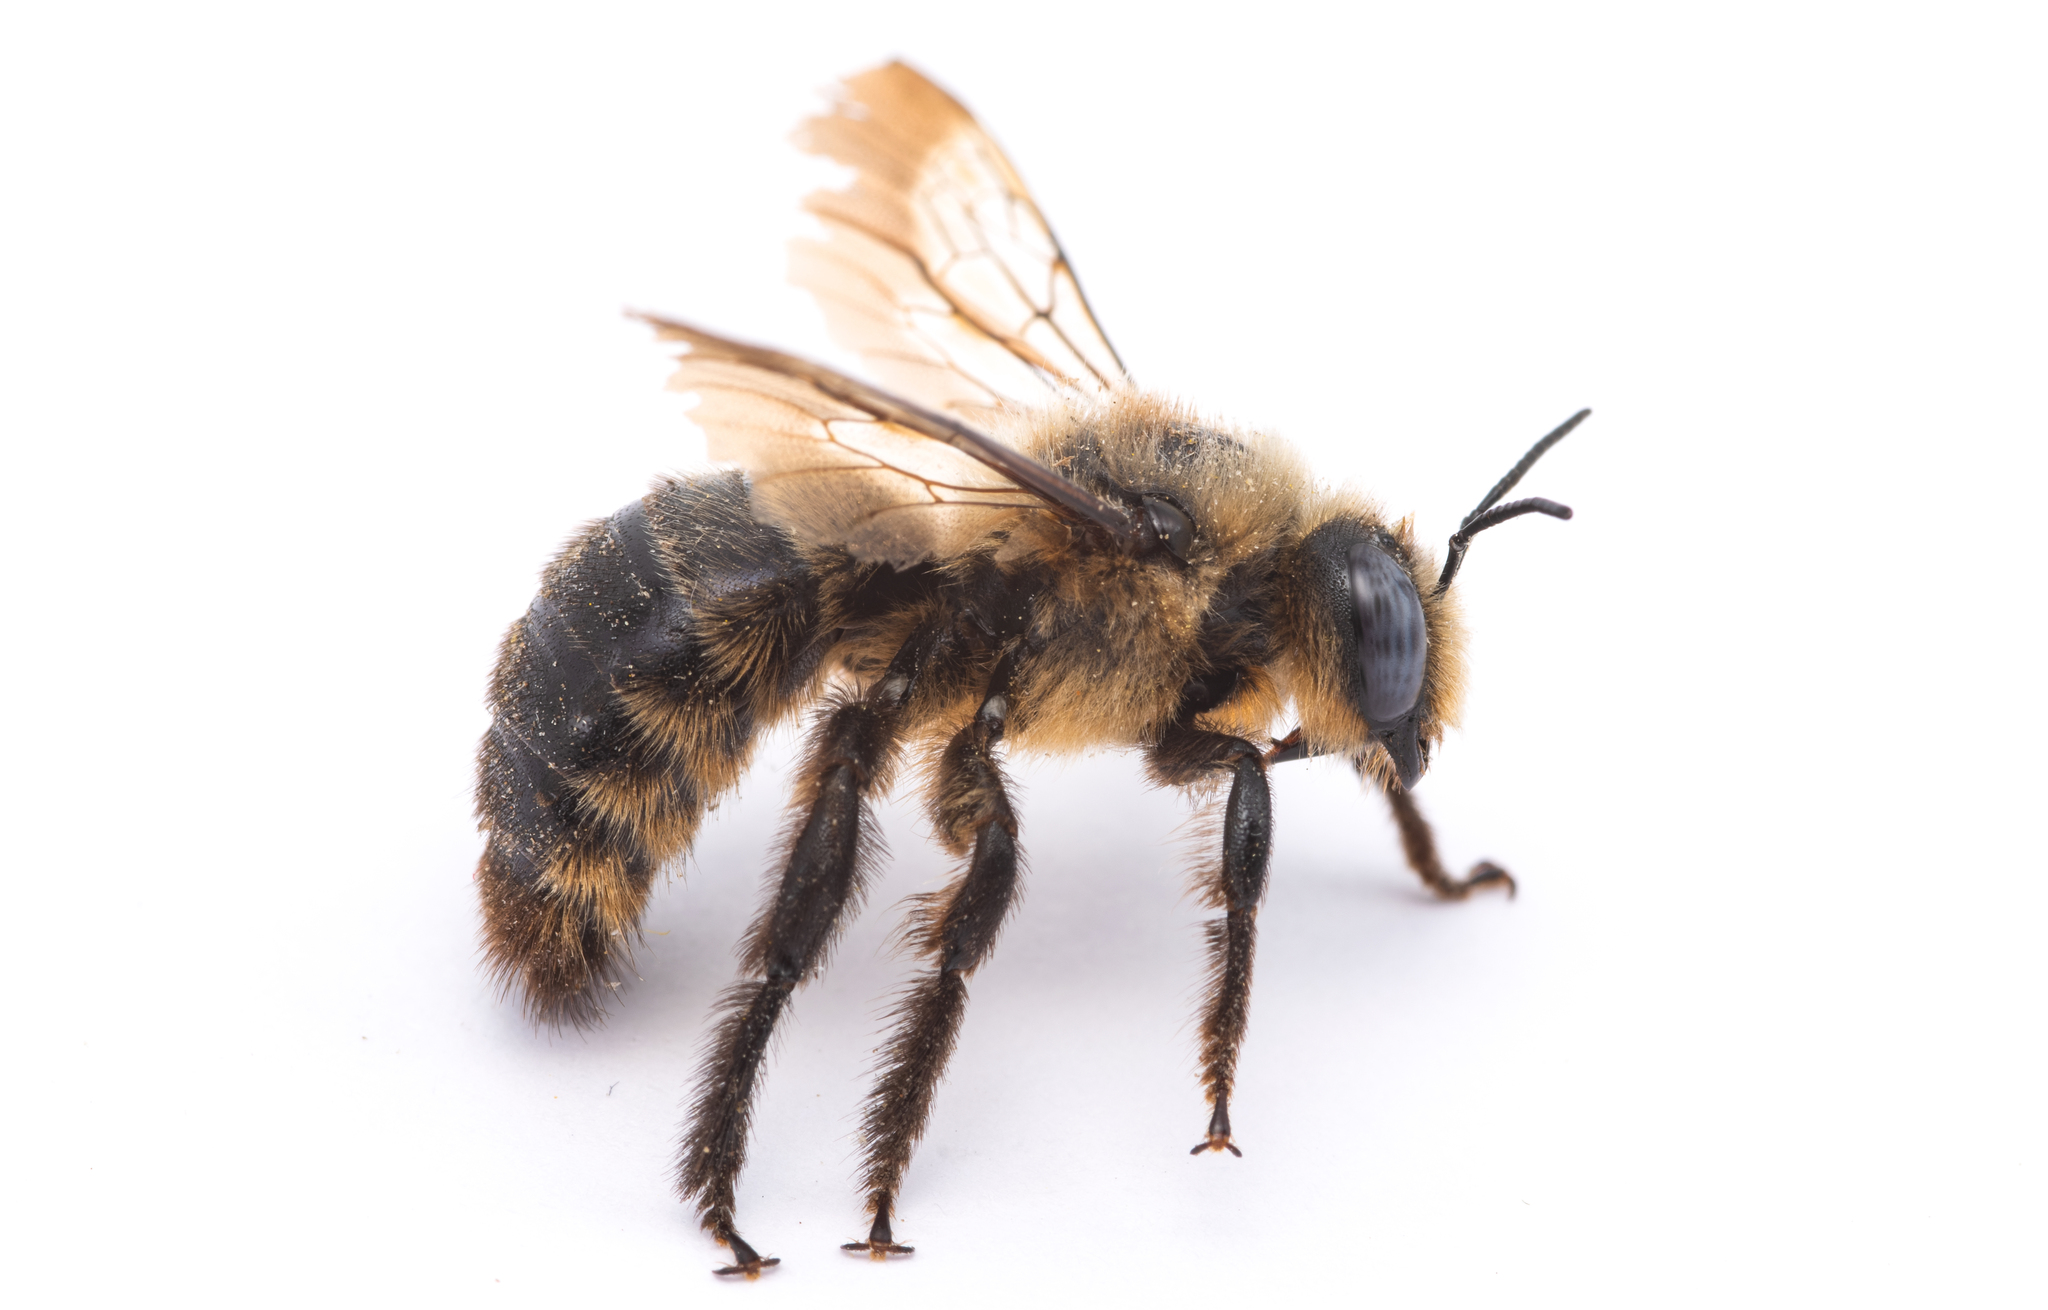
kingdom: Animalia
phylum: Arthropoda
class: Insecta
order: Hymenoptera
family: Apidae
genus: Xylocopa
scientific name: Xylocopa cantabrita
